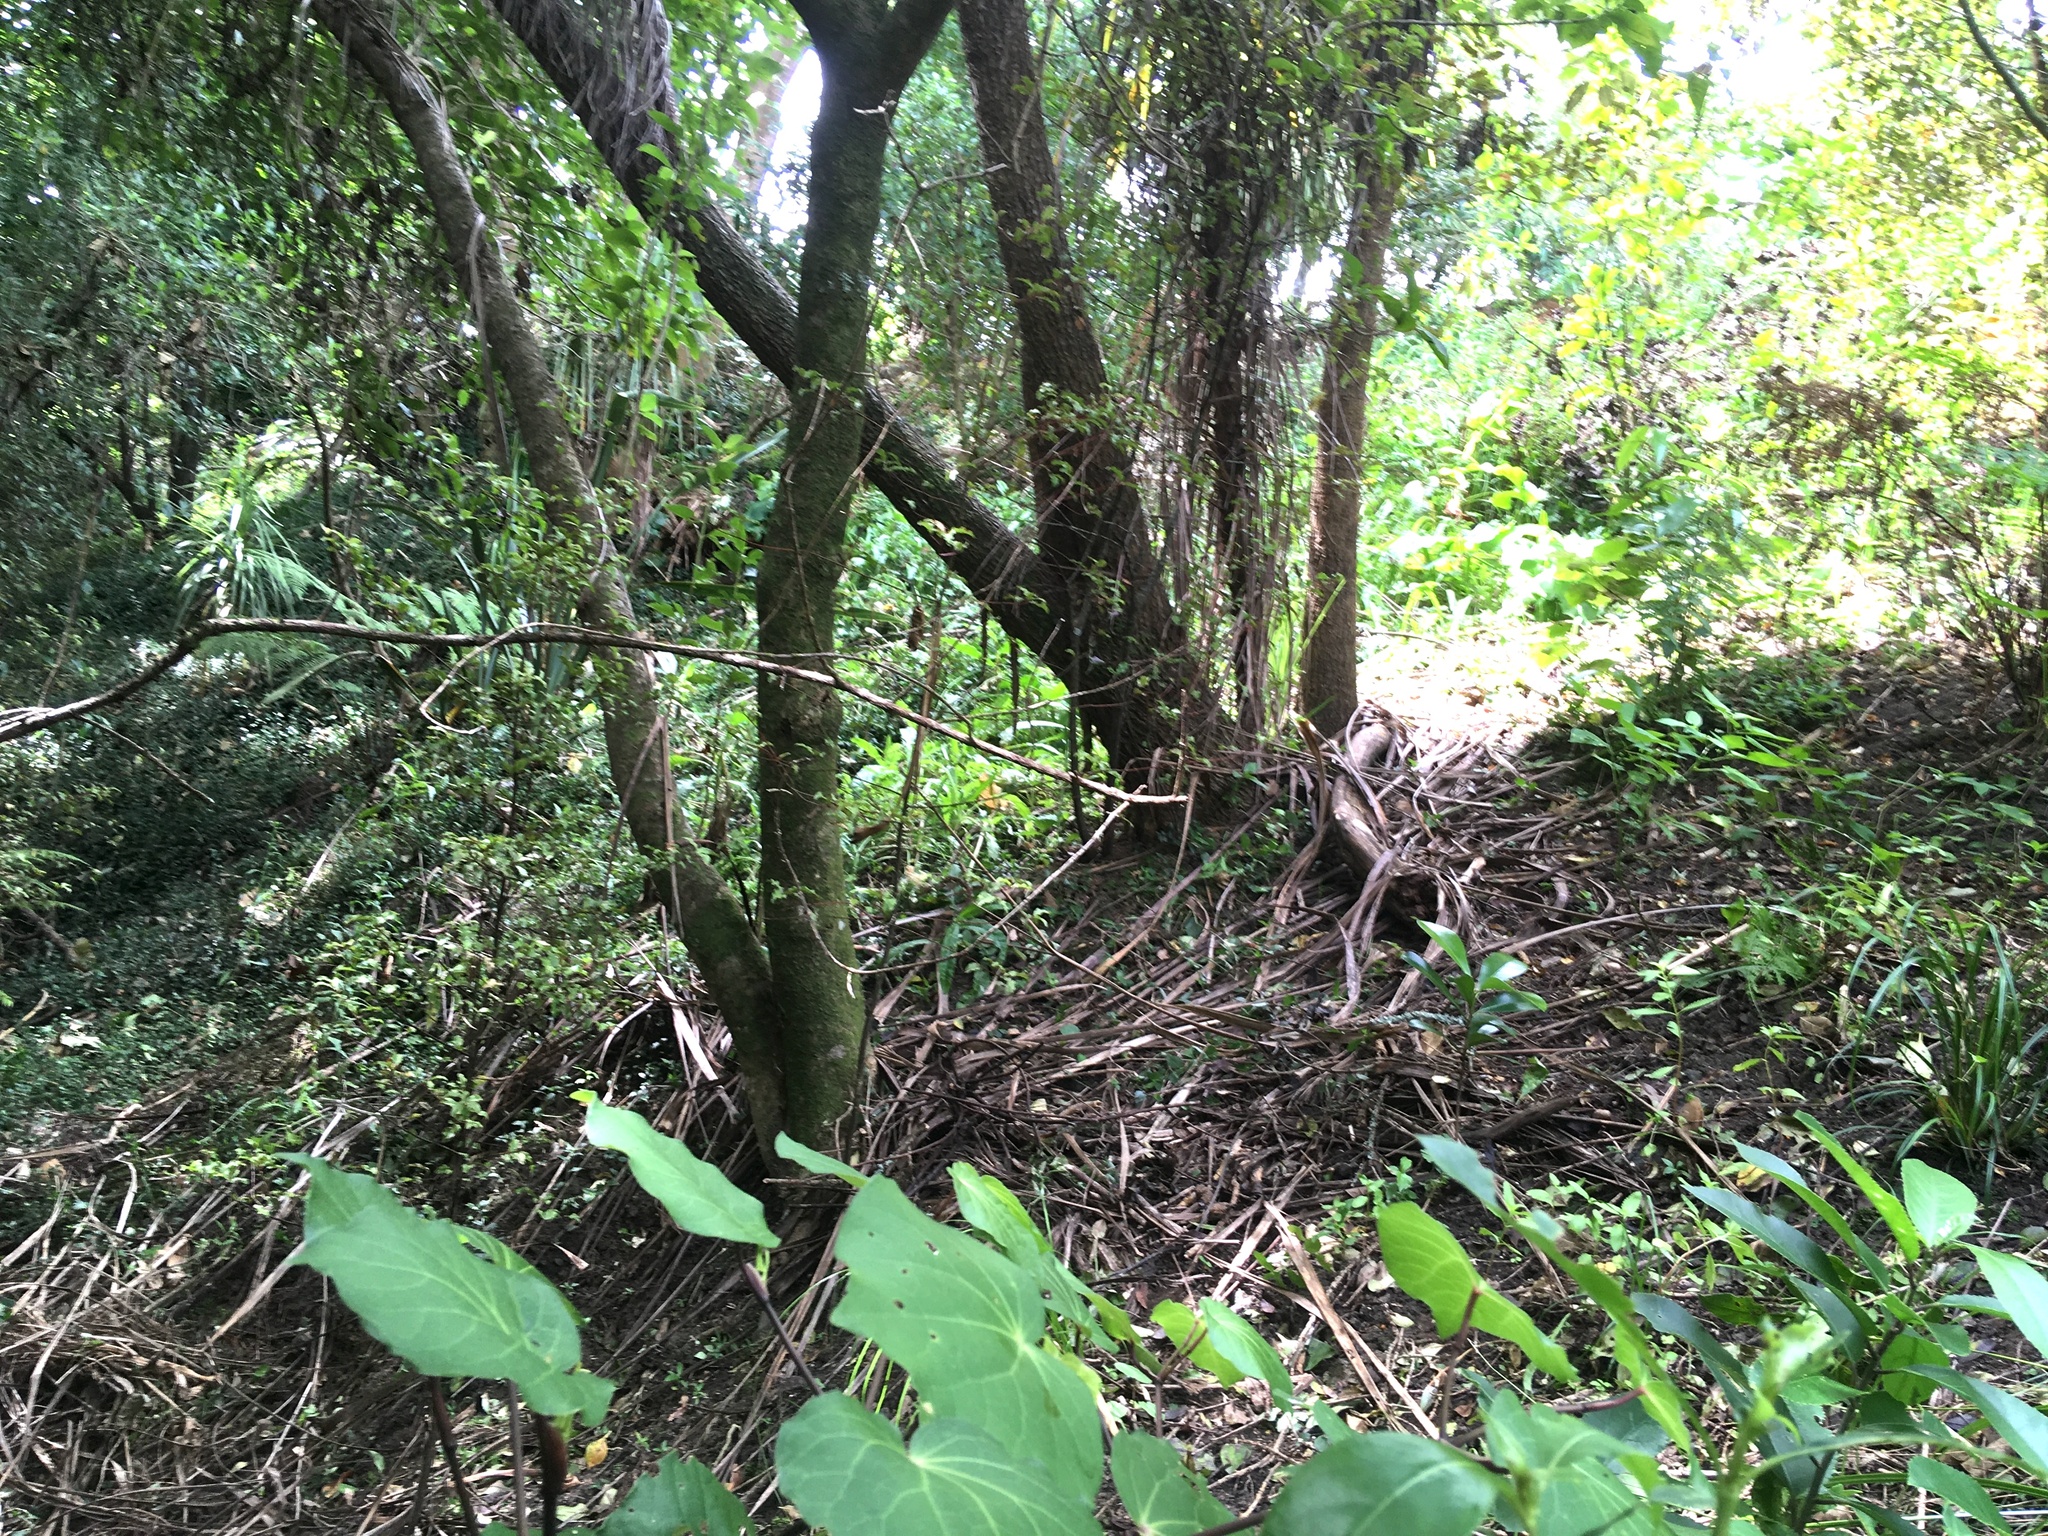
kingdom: Plantae
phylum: Tracheophyta
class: Liliopsida
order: Asparagales
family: Asparagaceae
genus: Cordyline
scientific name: Cordyline australis
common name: Cabbage-palm
